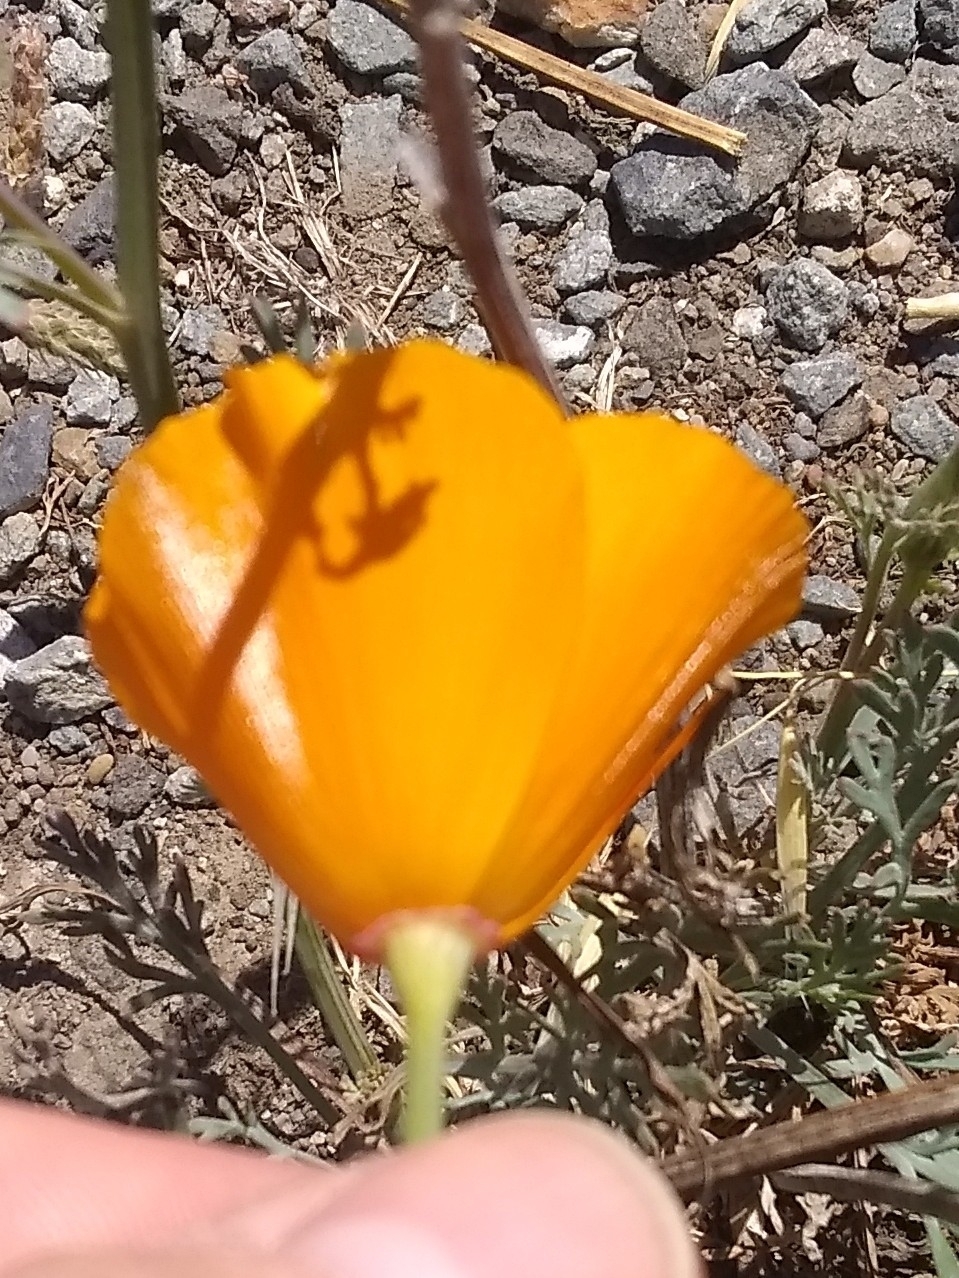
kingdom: Plantae
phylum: Tracheophyta
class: Magnoliopsida
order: Ranunculales
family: Papaveraceae
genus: Eschscholzia
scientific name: Eschscholzia californica
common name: California poppy
